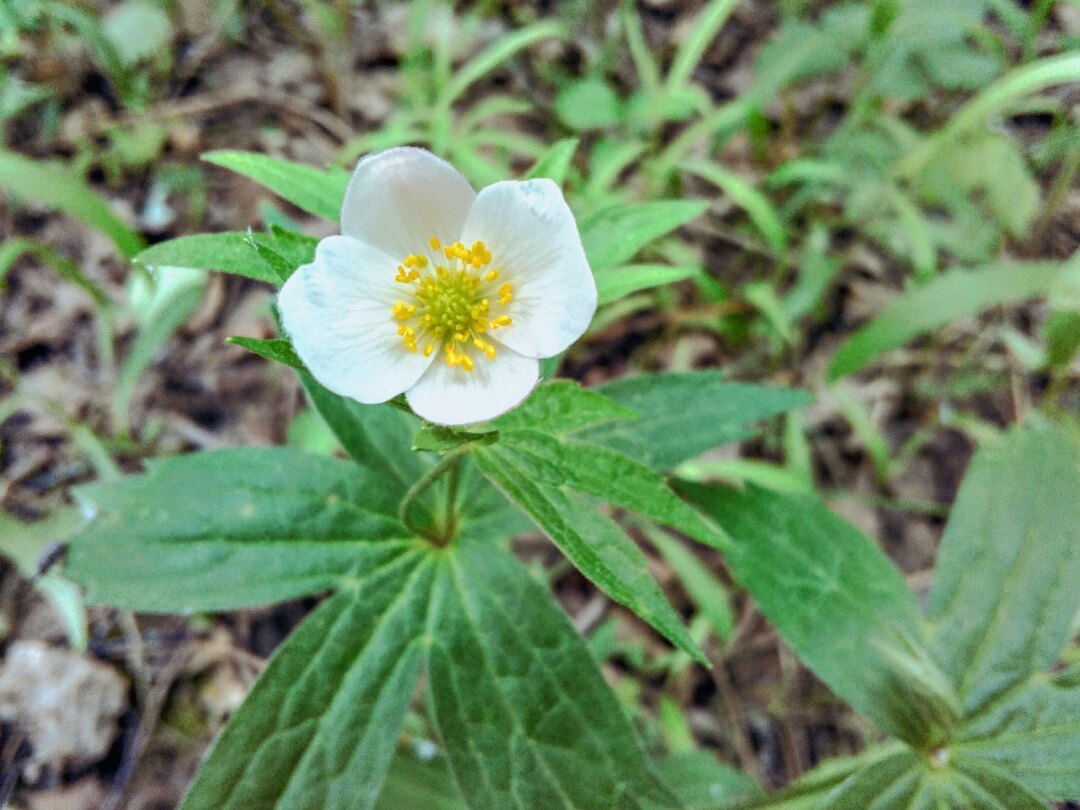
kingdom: Plantae
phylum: Tracheophyta
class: Magnoliopsida
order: Ranunculales
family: Ranunculaceae
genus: Anemonastrum
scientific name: Anemonastrum dichotomum
